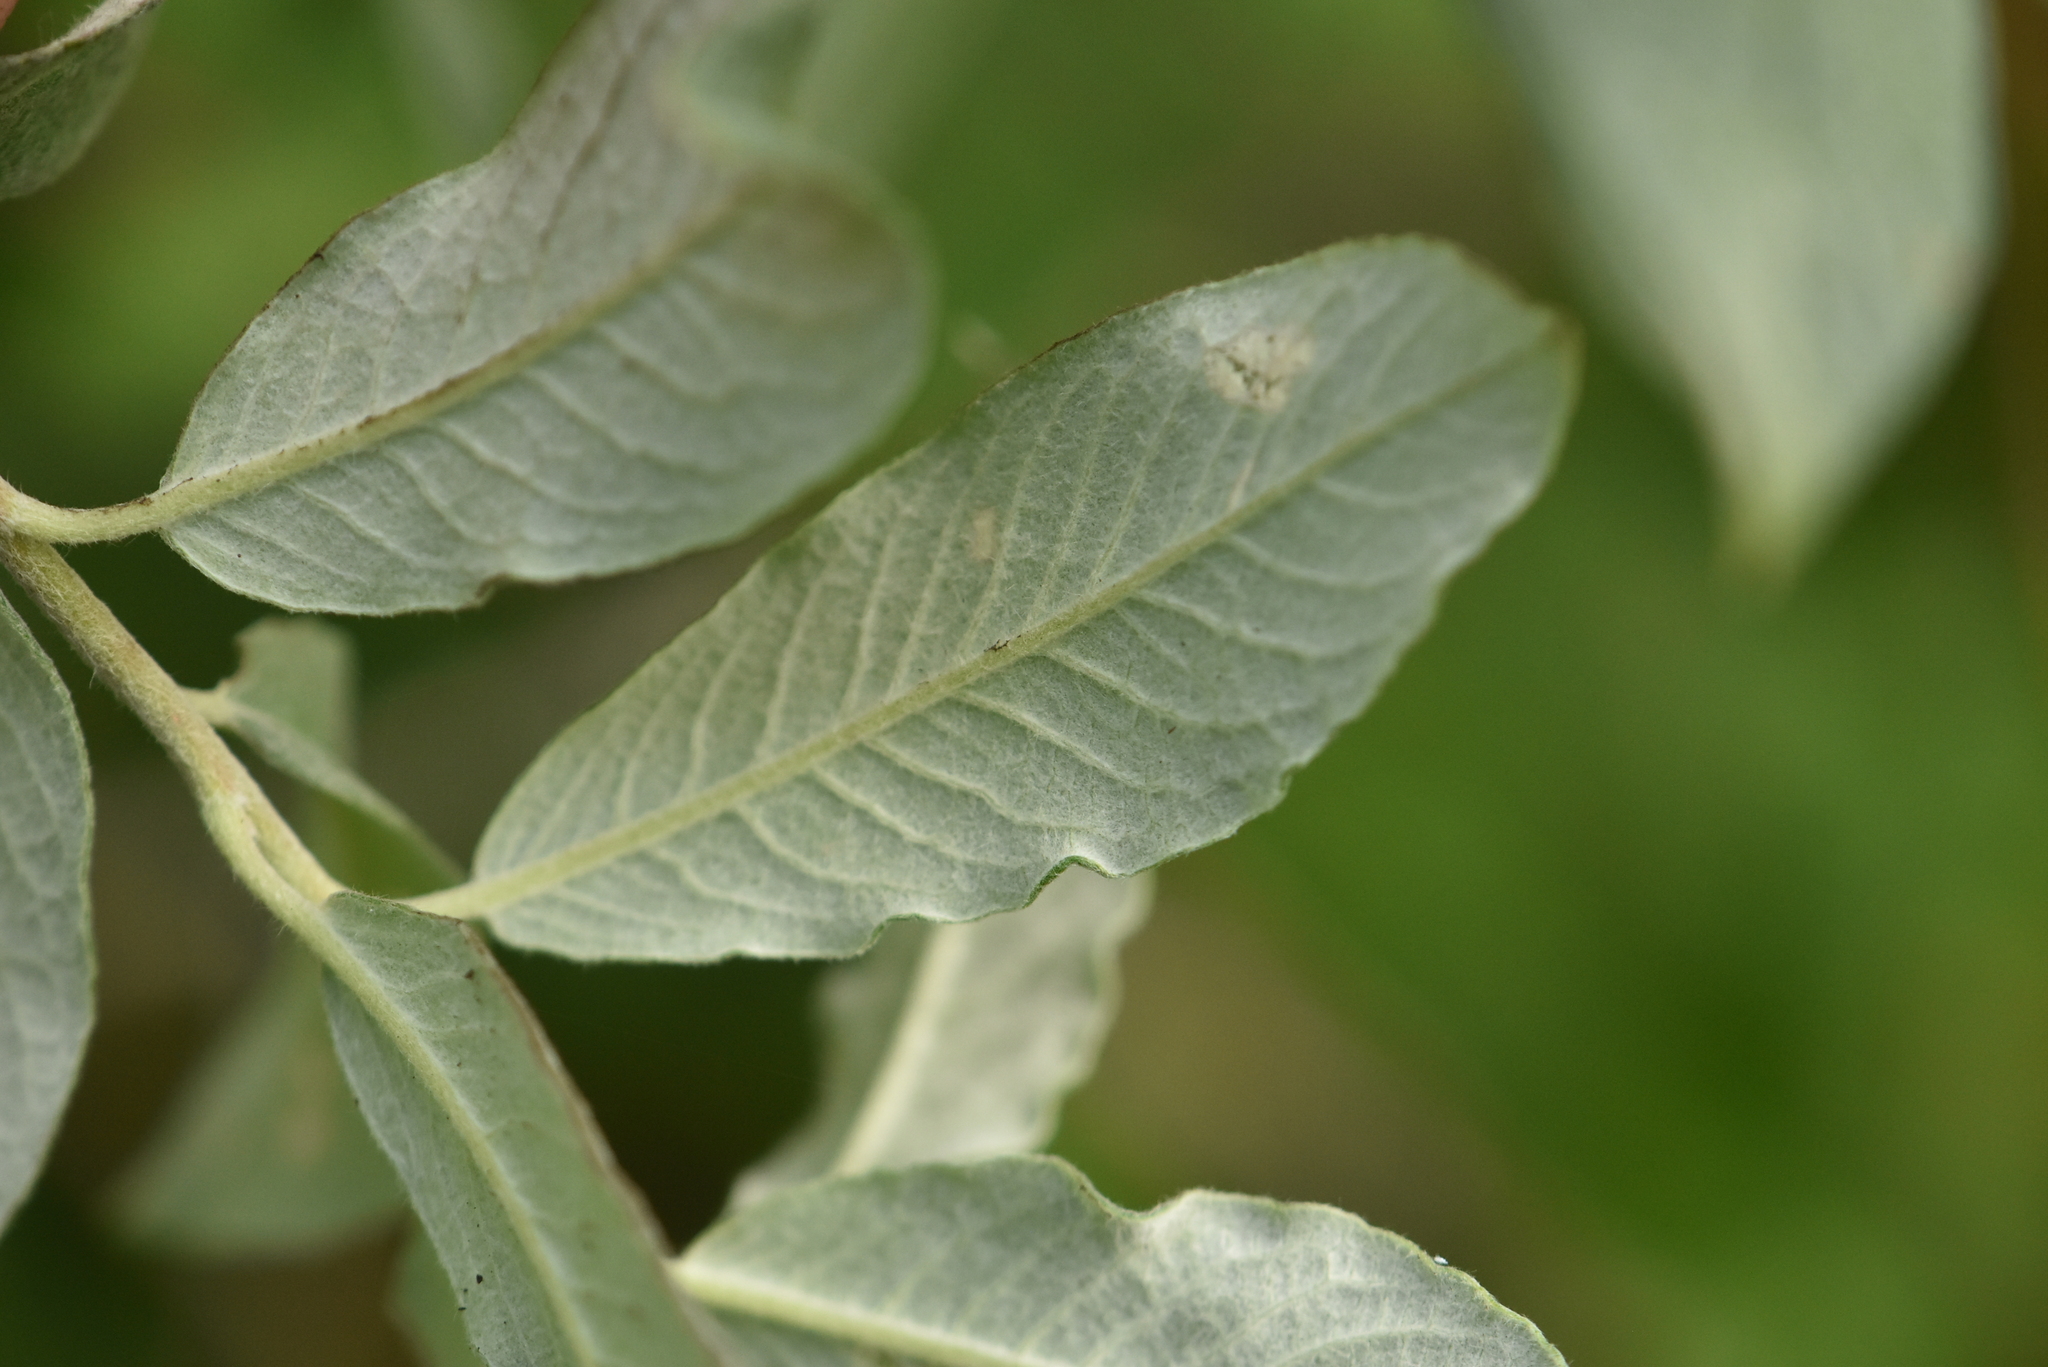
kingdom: Plantae
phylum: Tracheophyta
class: Magnoliopsida
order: Malpighiales
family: Salicaceae
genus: Salix
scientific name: Salix lapponum
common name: Downy willow
